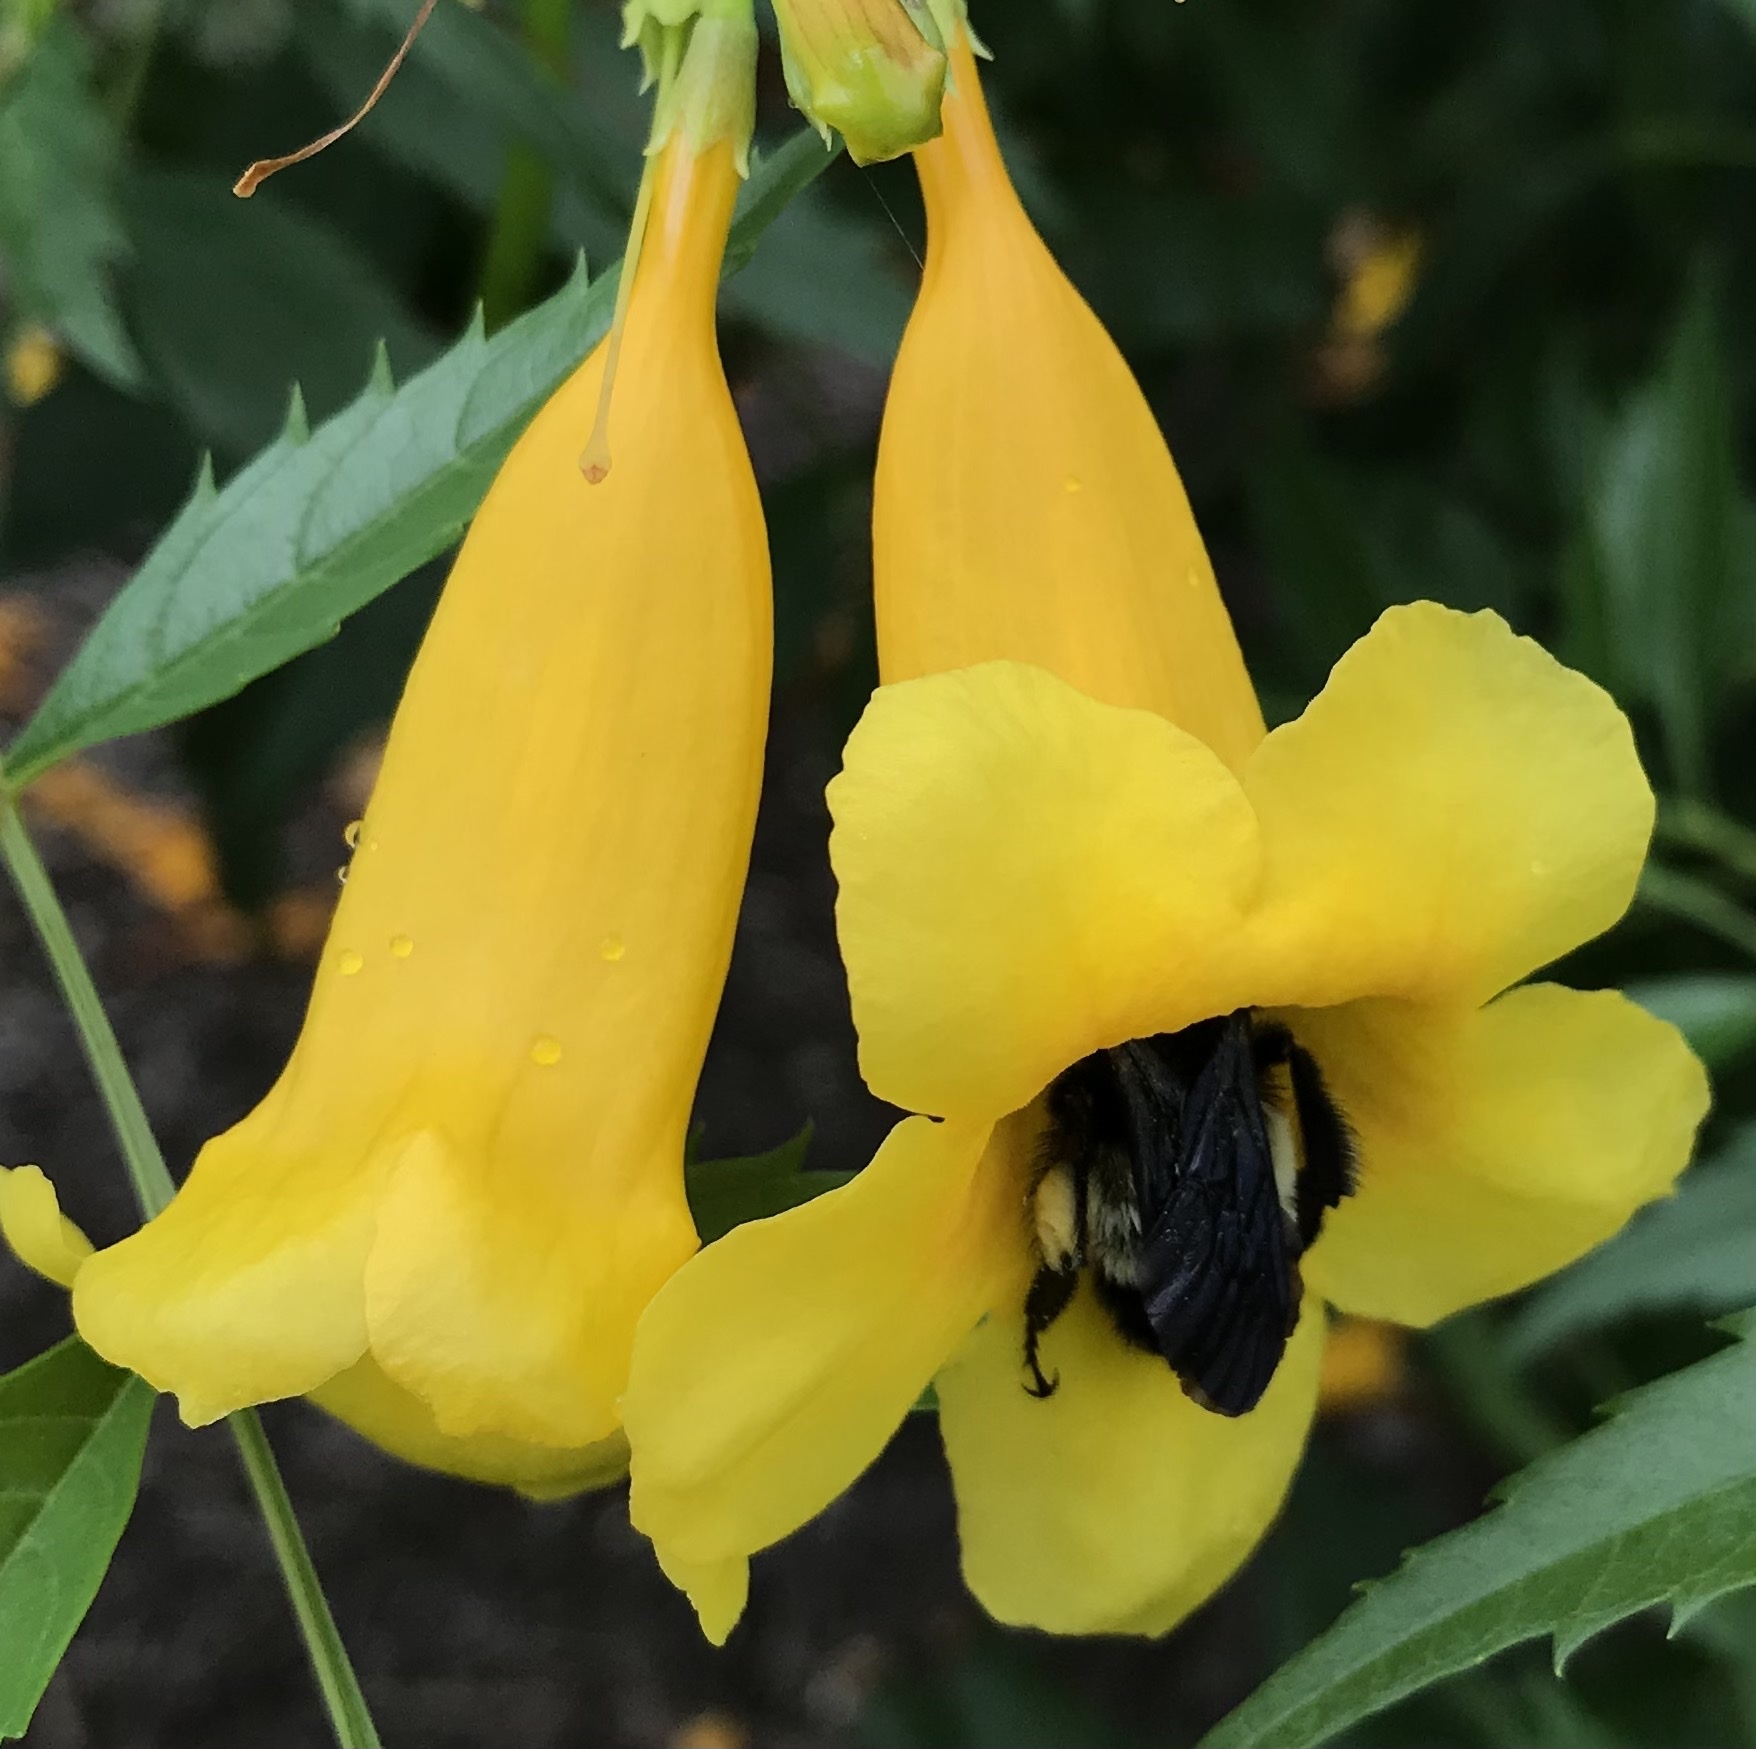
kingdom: Animalia
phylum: Arthropoda
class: Insecta
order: Hymenoptera
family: Apidae
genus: Bombus
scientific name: Bombus pensylvanicus
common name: Bumble bee
